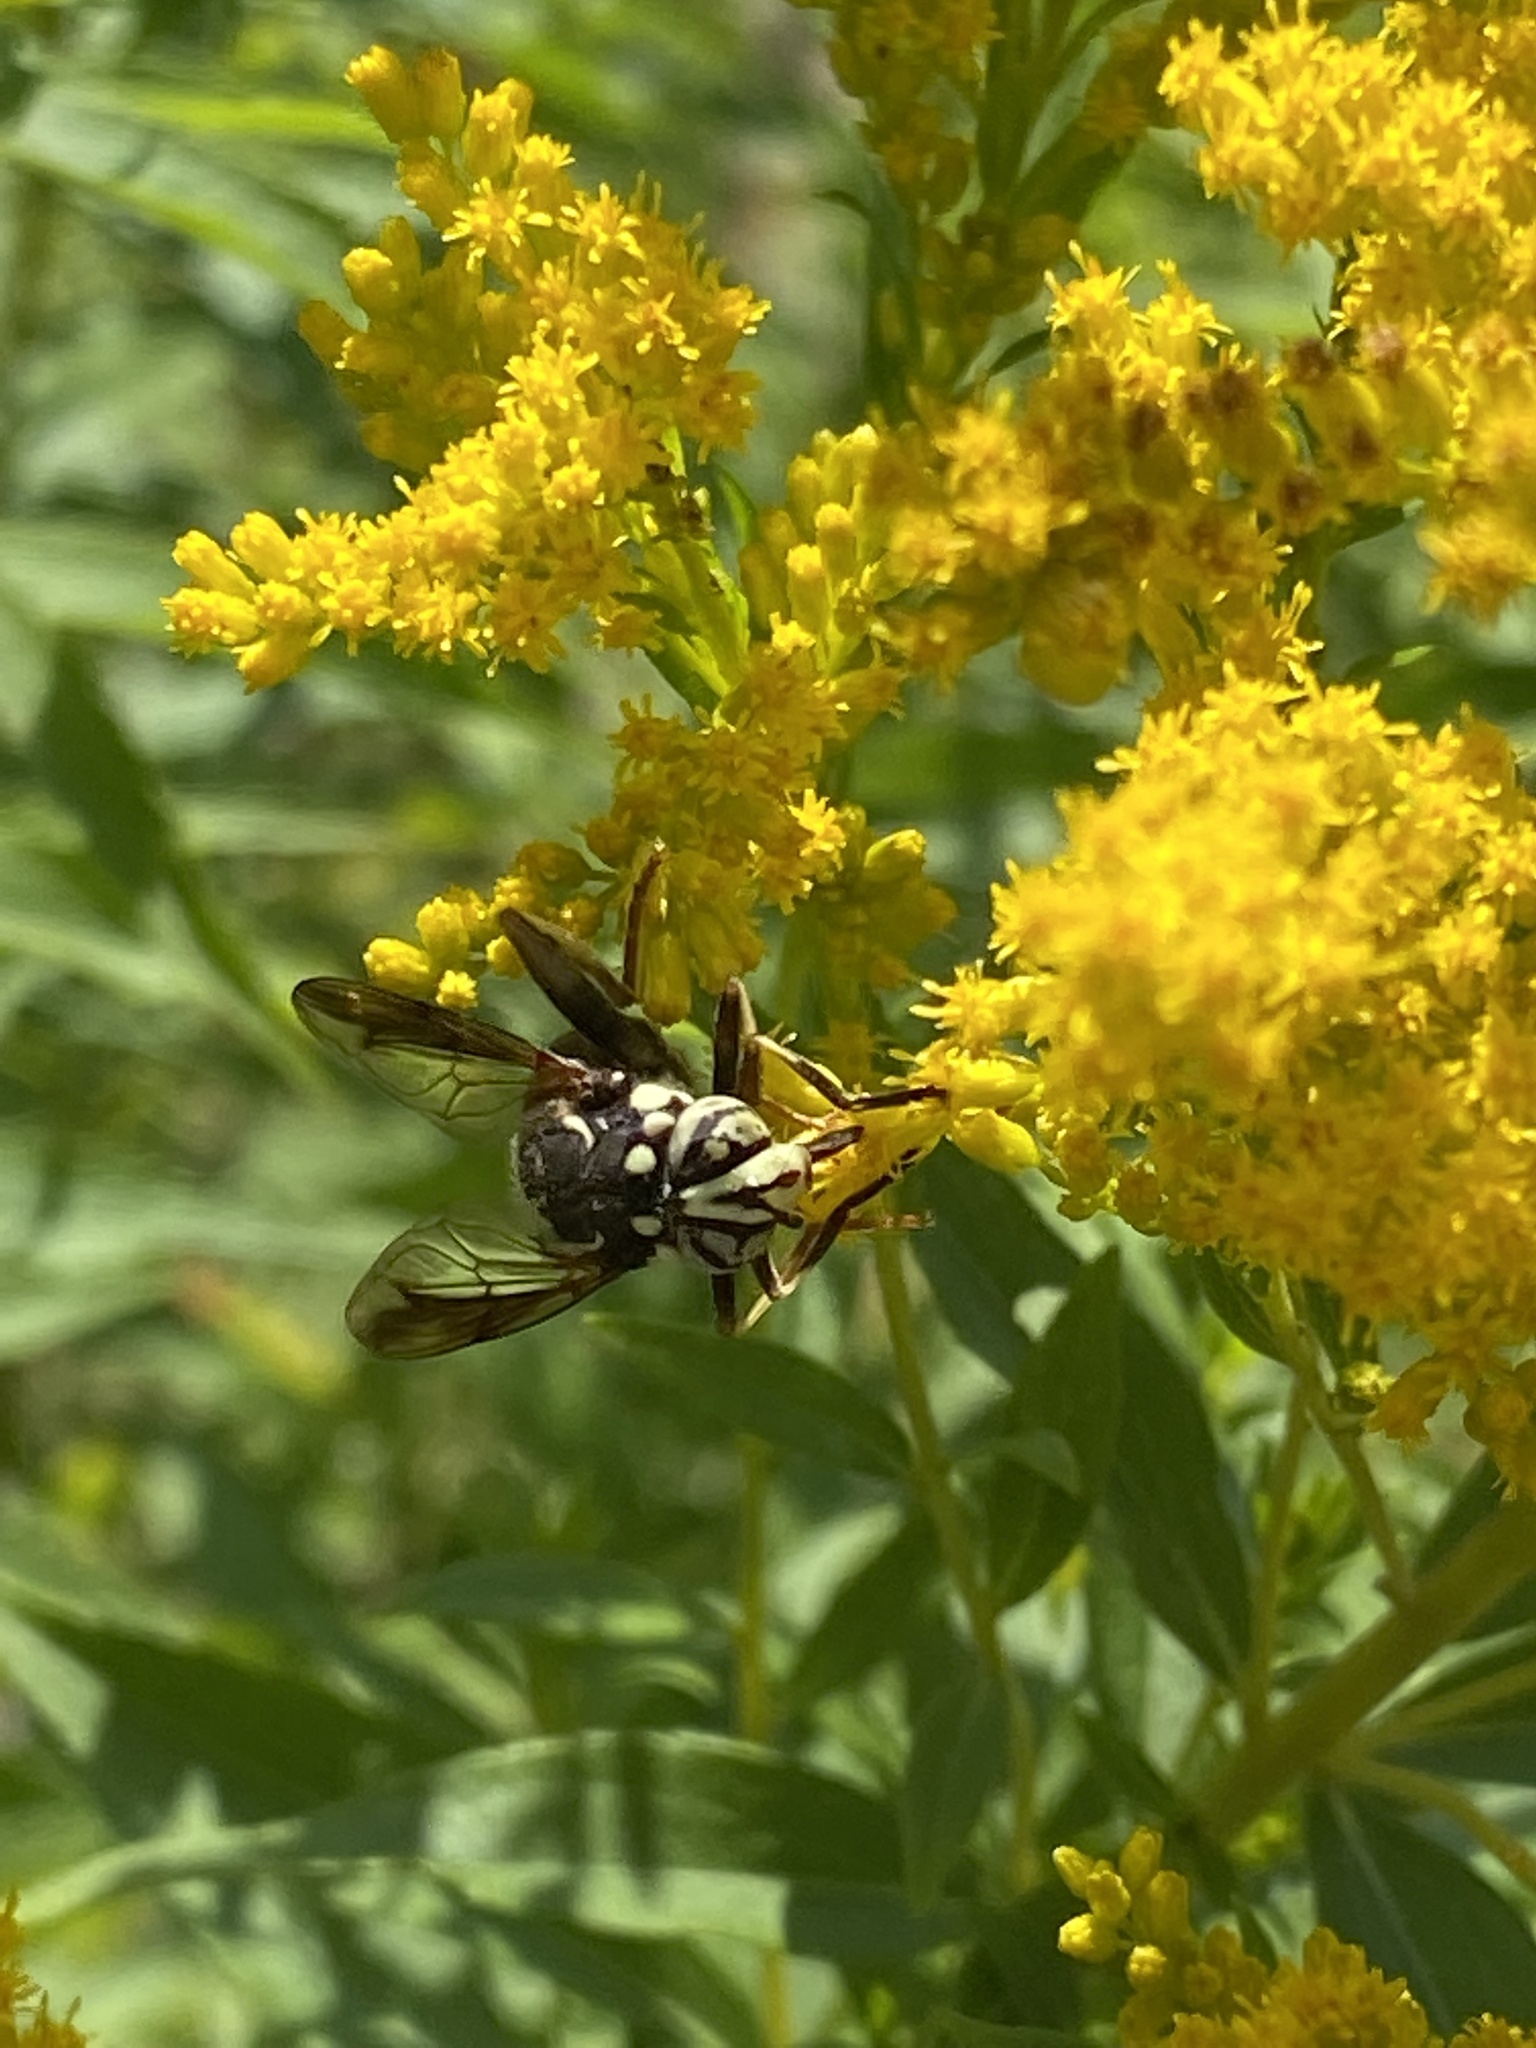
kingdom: Animalia
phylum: Arthropoda
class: Insecta
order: Diptera
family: Syrphidae
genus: Spilomyia
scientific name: Spilomyia fusca
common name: Bald-faced hornet fly
